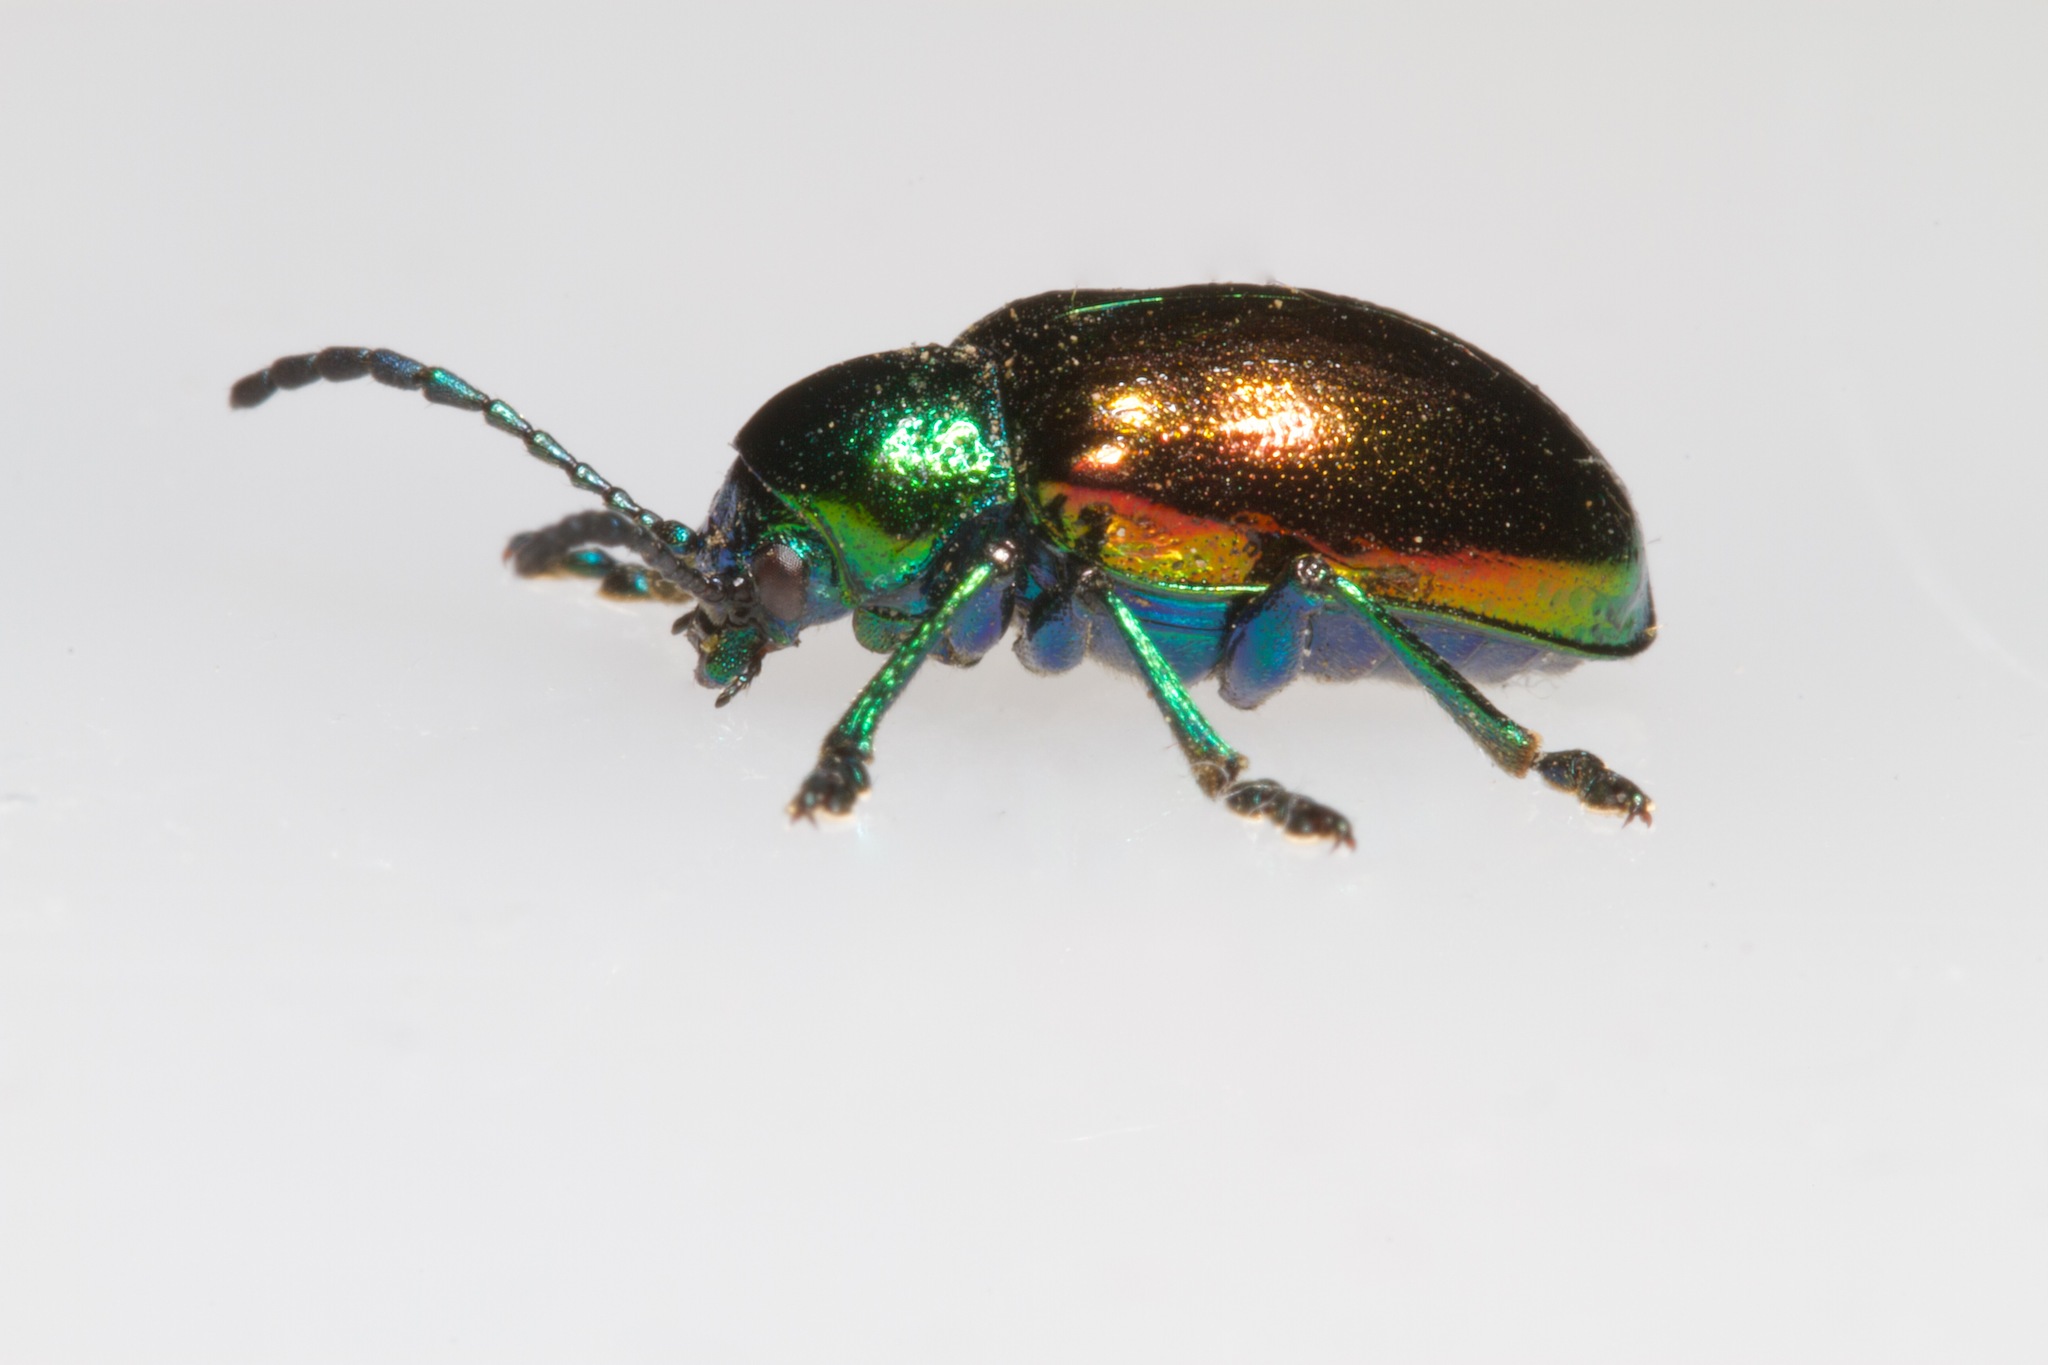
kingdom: Animalia
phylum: Arthropoda
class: Insecta
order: Coleoptera
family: Chrysomelidae
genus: Chrysochus
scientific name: Chrysochus auratus
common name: Dogbane leaf beetle
